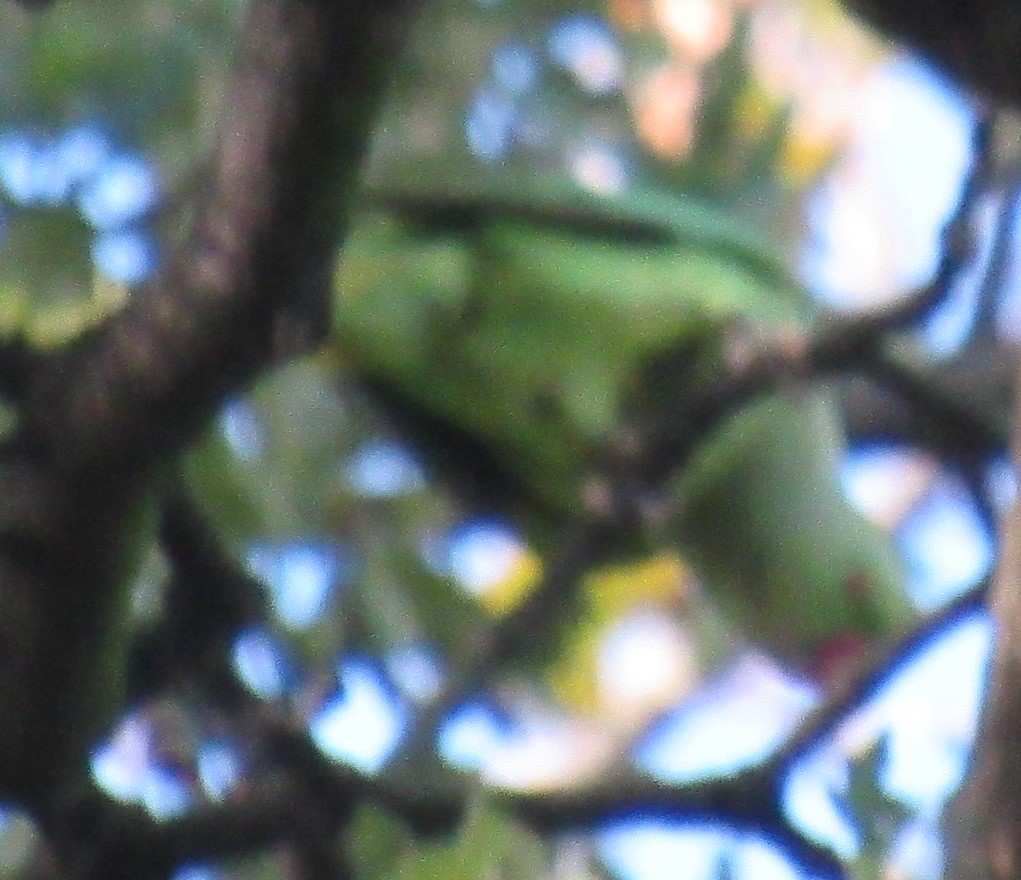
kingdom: Animalia
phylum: Chordata
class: Aves
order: Psittaciformes
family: Psittacidae
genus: Psittacula
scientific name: Psittacula krameri
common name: Rose-ringed parakeet
